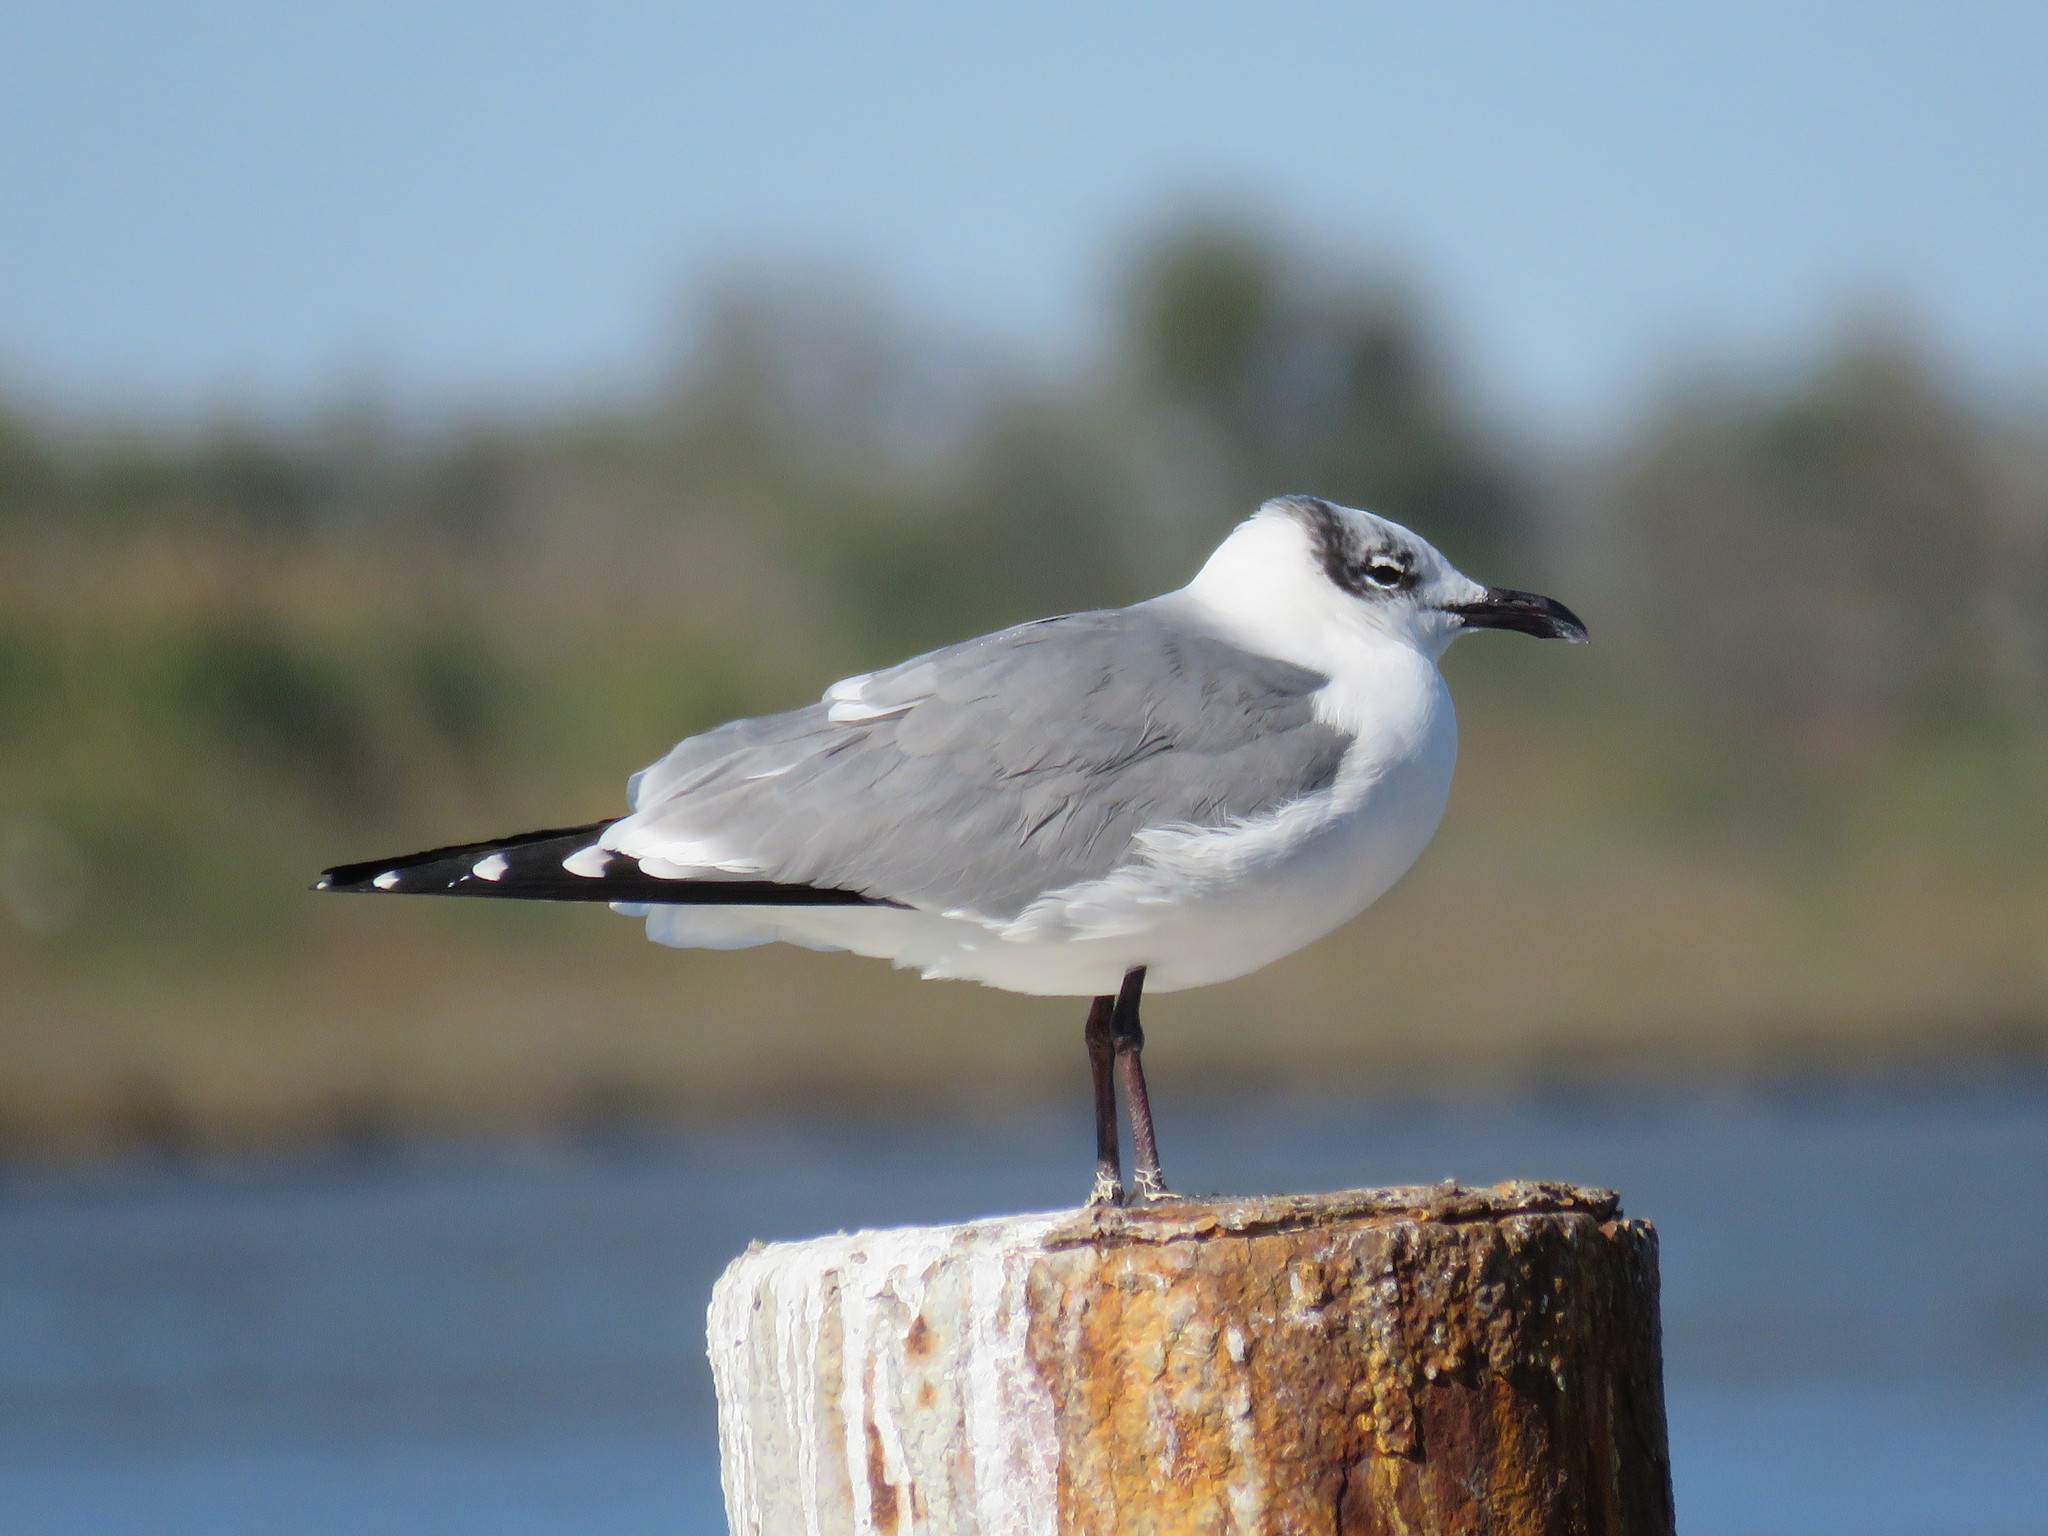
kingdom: Animalia
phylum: Chordata
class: Aves
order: Charadriiformes
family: Laridae
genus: Leucophaeus
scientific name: Leucophaeus atricilla
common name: Laughing gull
